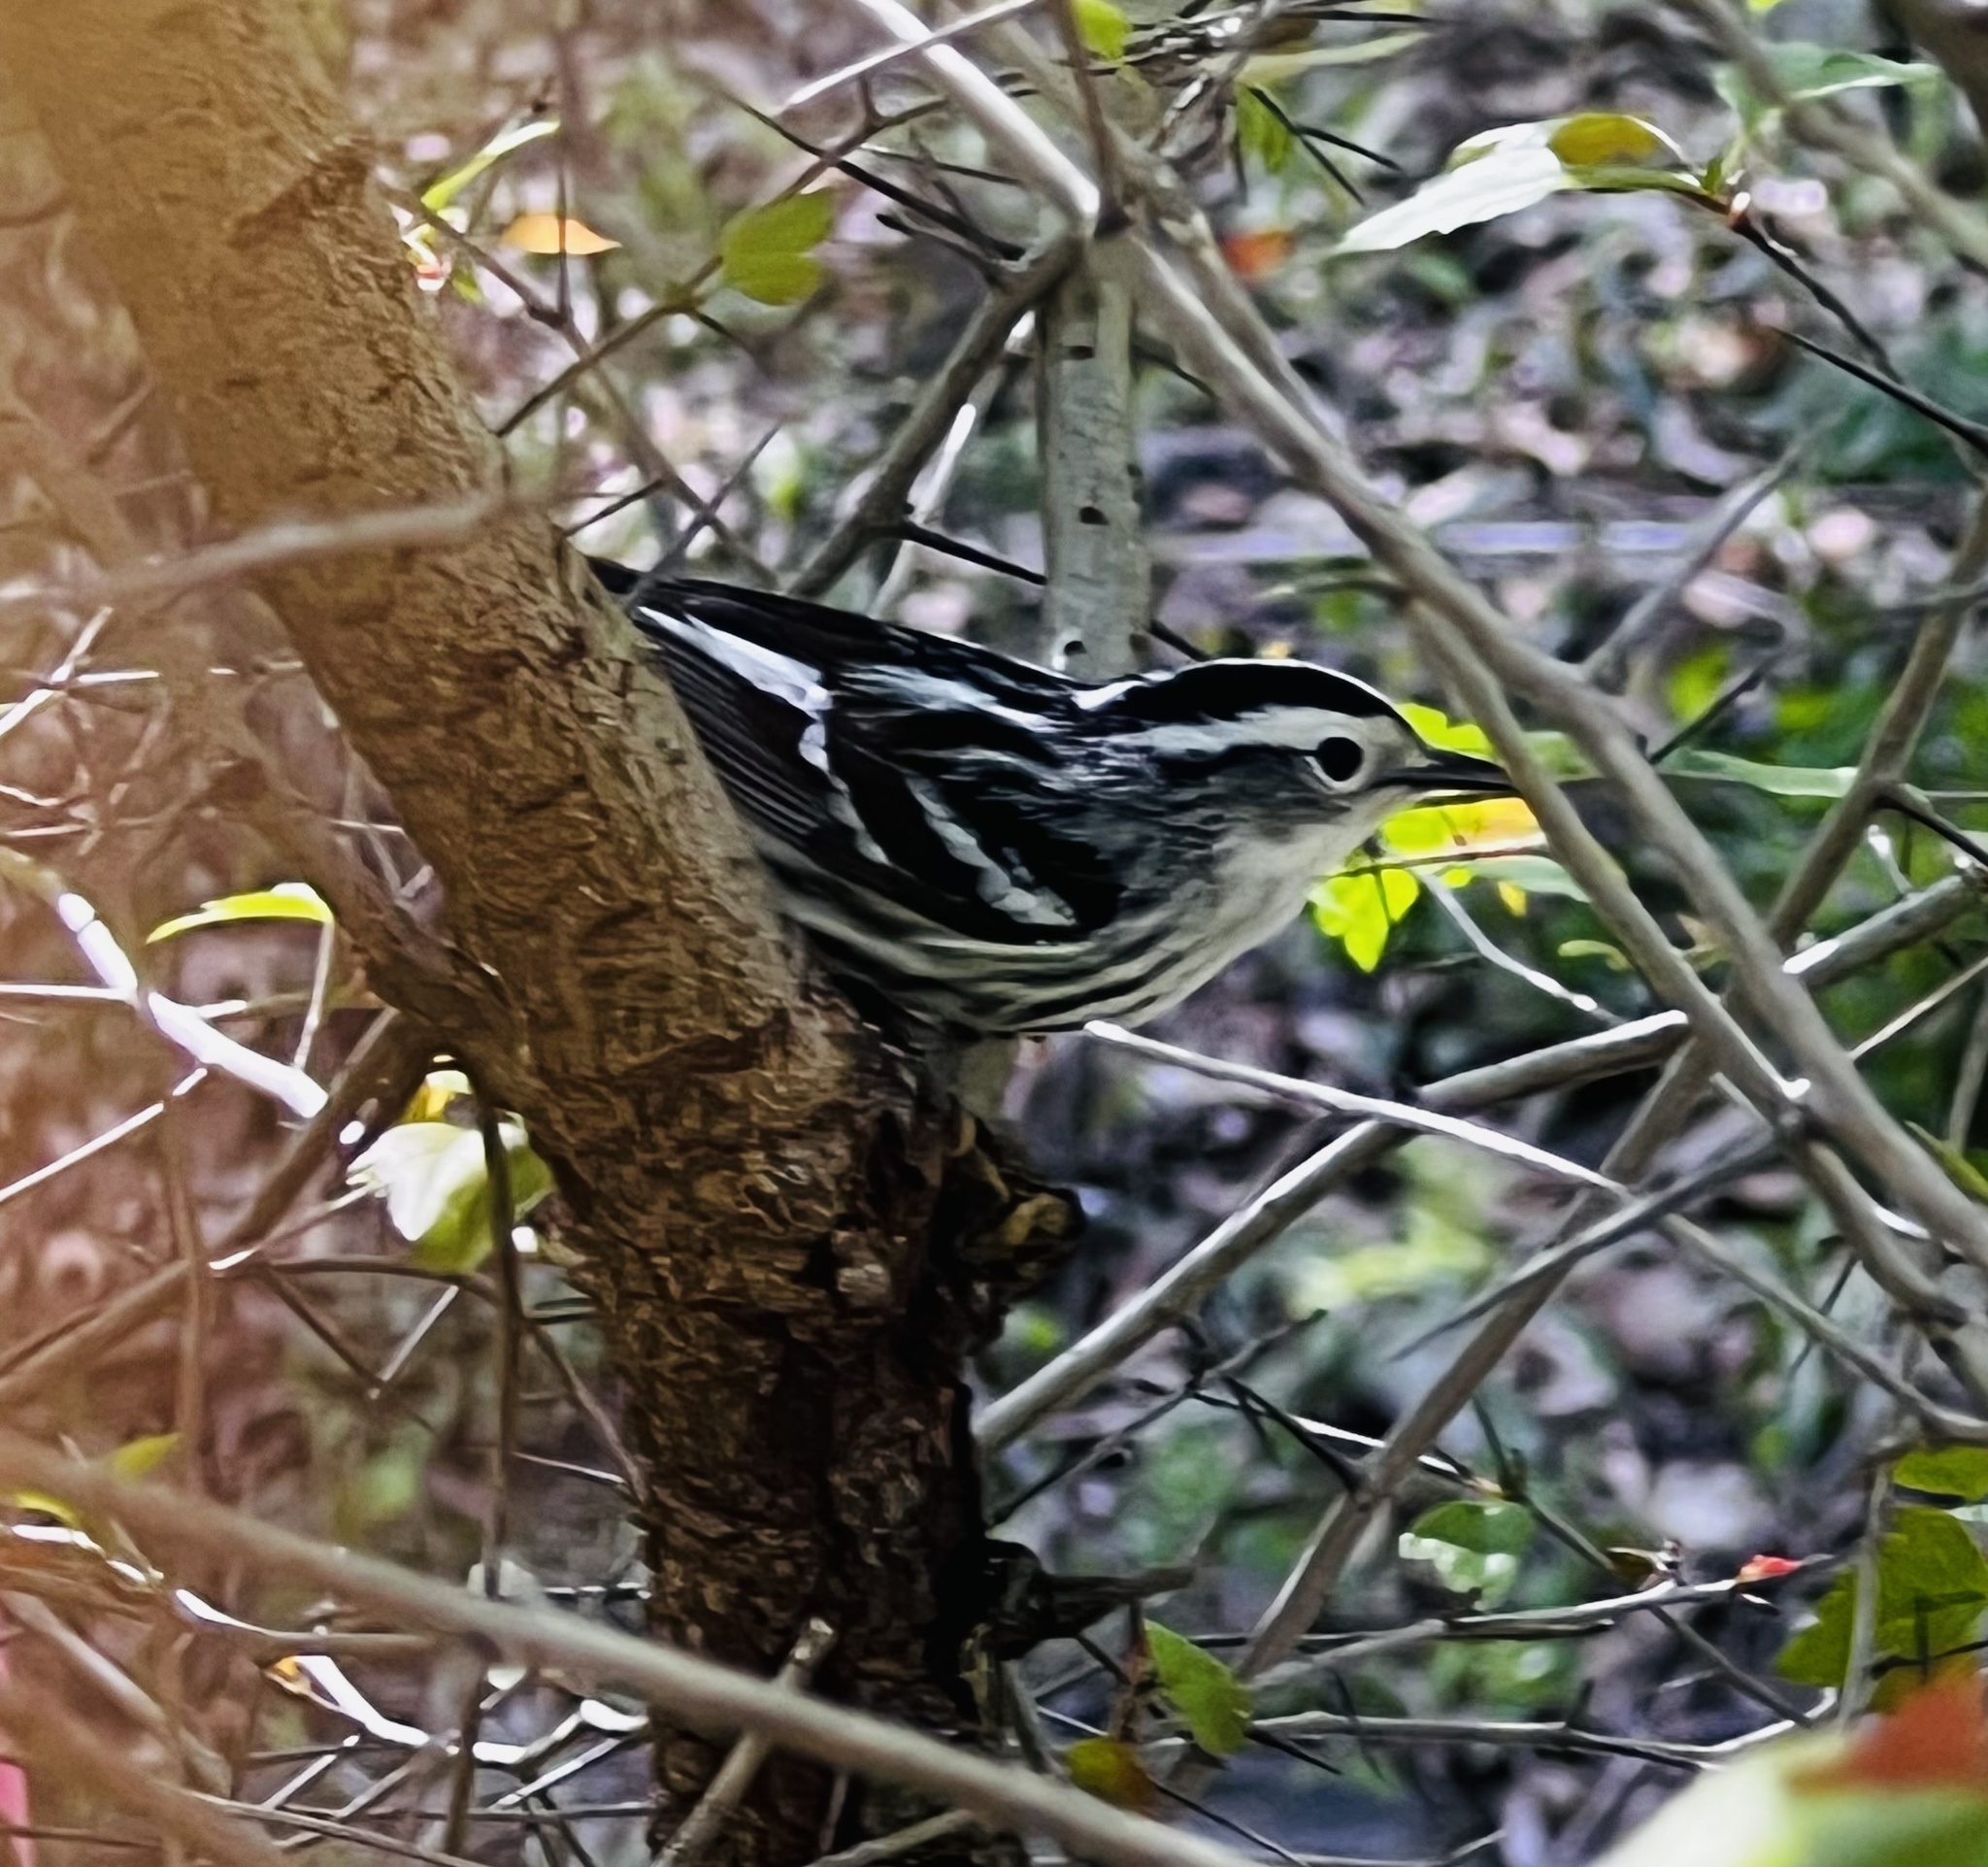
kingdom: Animalia
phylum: Chordata
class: Aves
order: Passeriformes
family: Parulidae
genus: Mniotilta
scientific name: Mniotilta varia
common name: Black-and-white warbler
